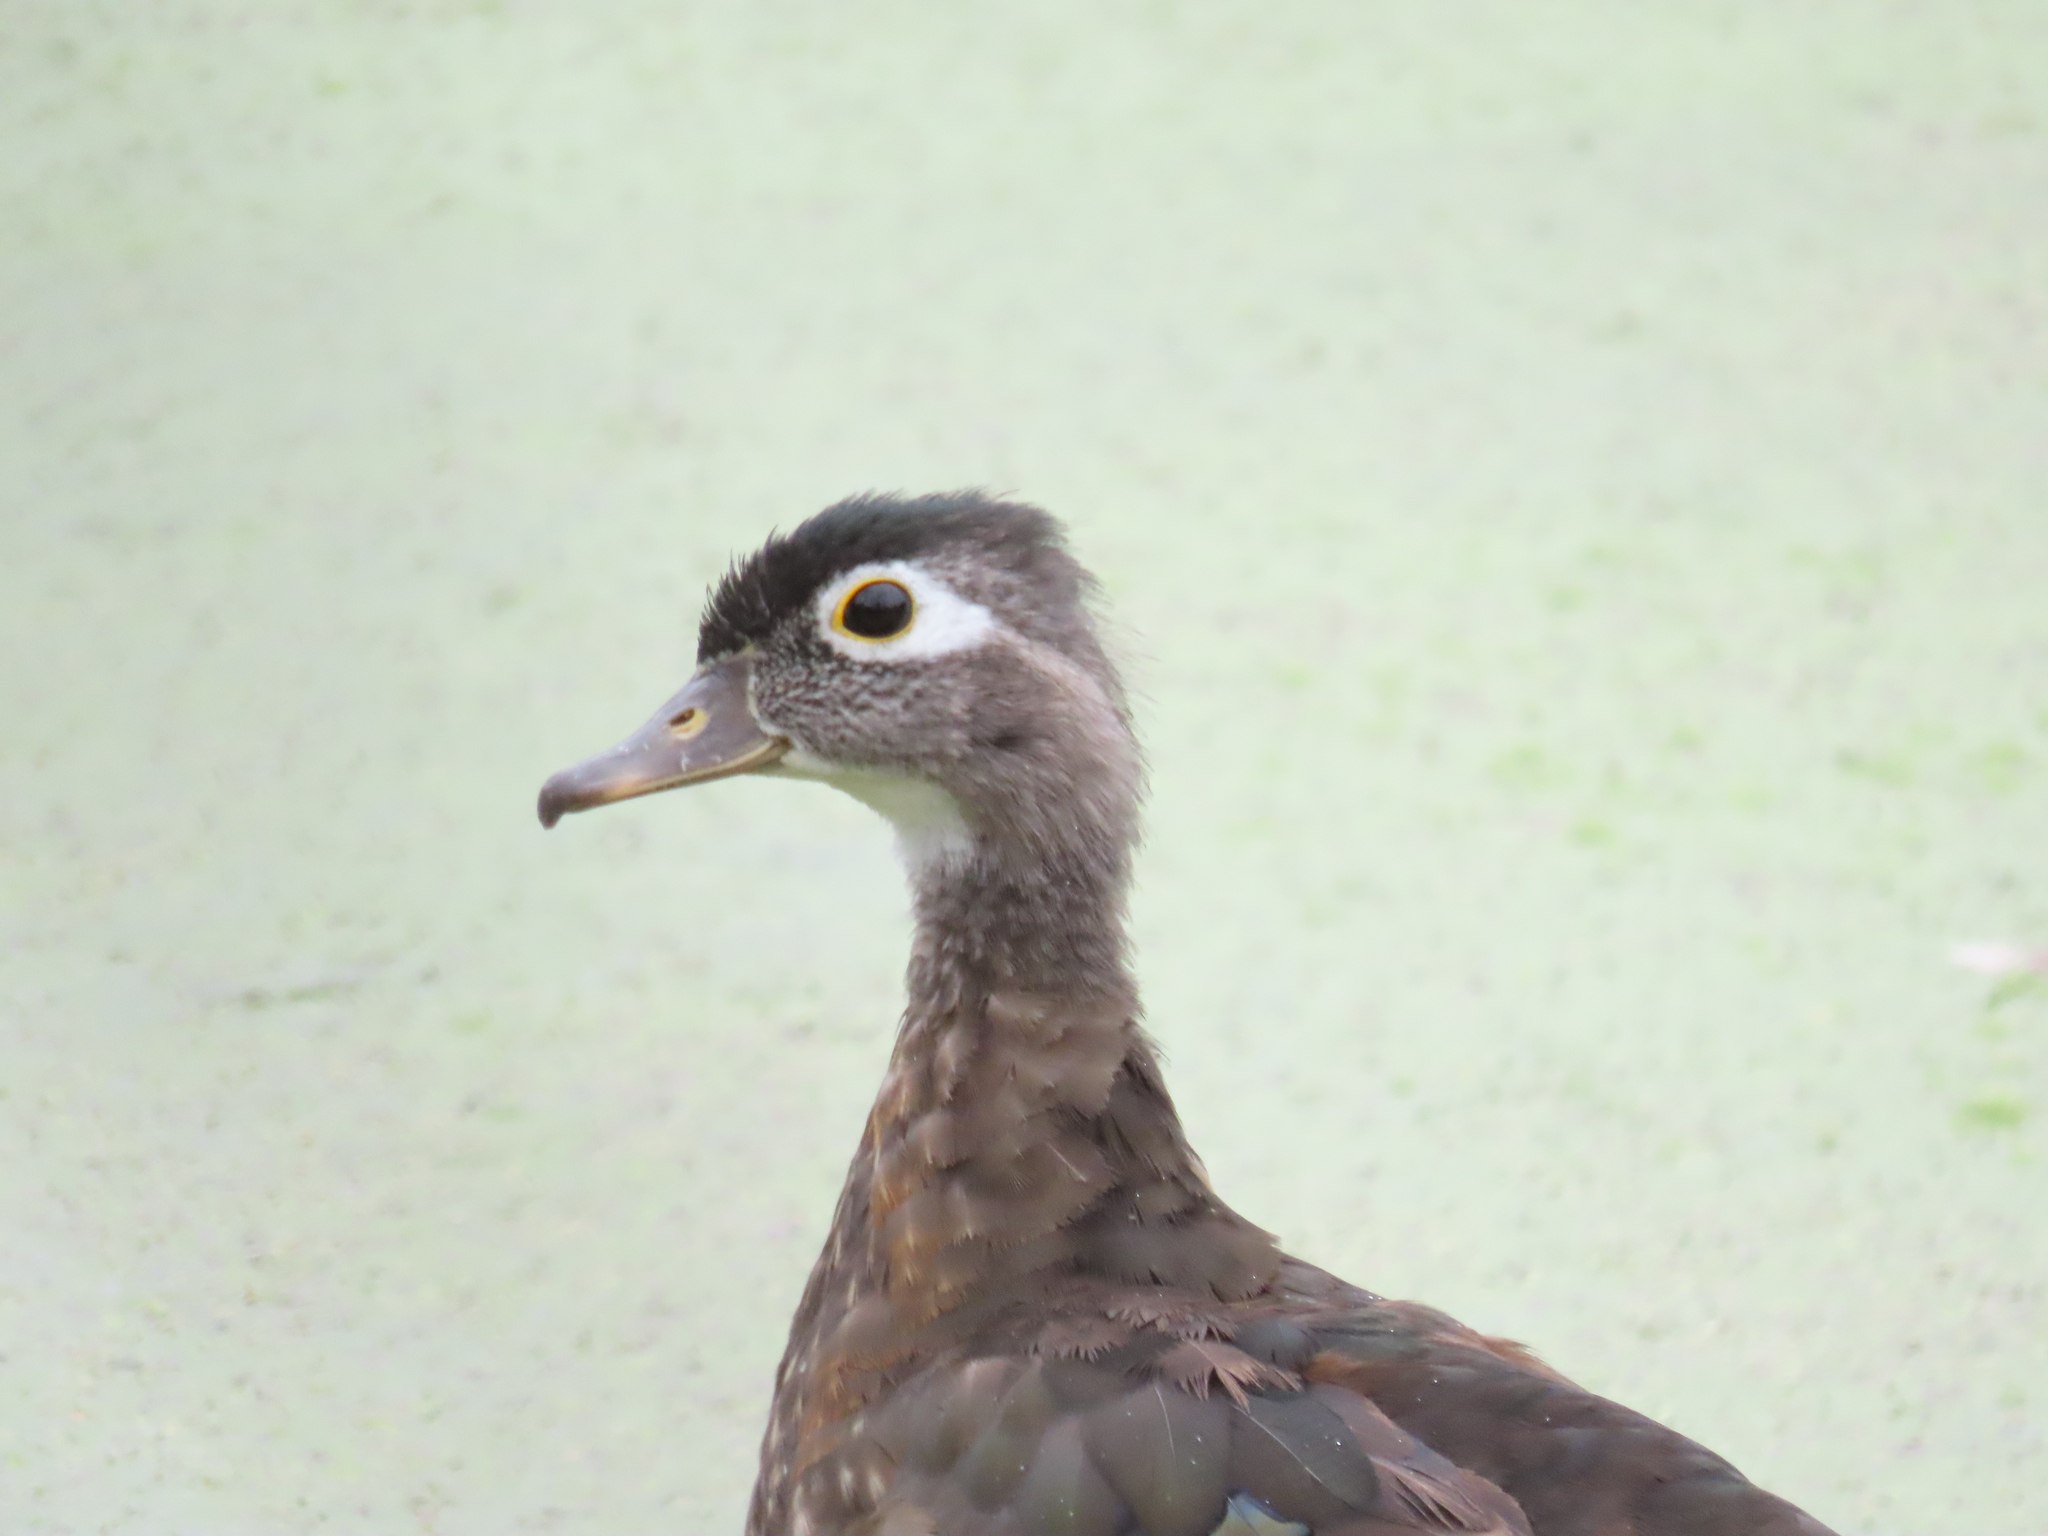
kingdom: Animalia
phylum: Chordata
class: Aves
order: Anseriformes
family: Anatidae
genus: Aix
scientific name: Aix sponsa
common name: Wood duck
